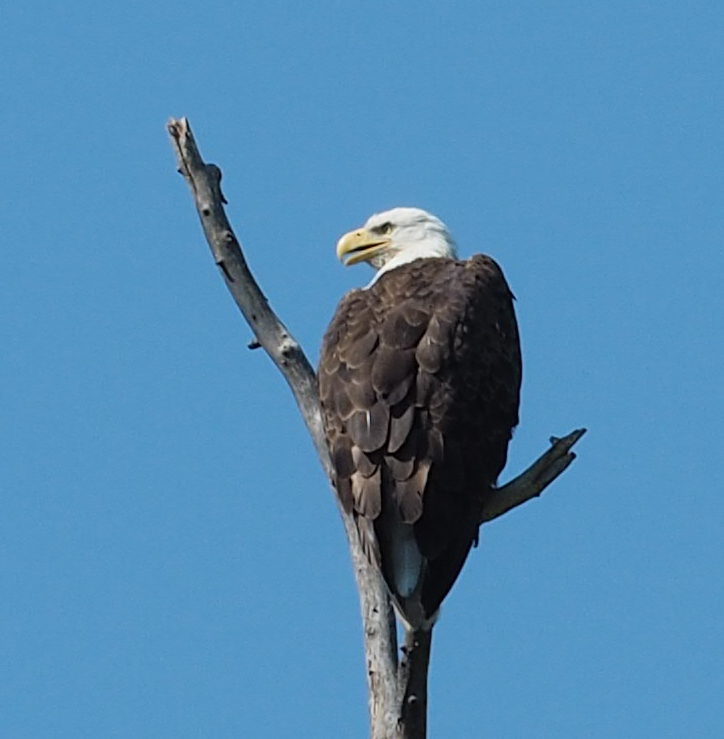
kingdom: Animalia
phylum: Chordata
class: Aves
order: Accipitriformes
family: Accipitridae
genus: Haliaeetus
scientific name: Haliaeetus leucocephalus
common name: Bald eagle
